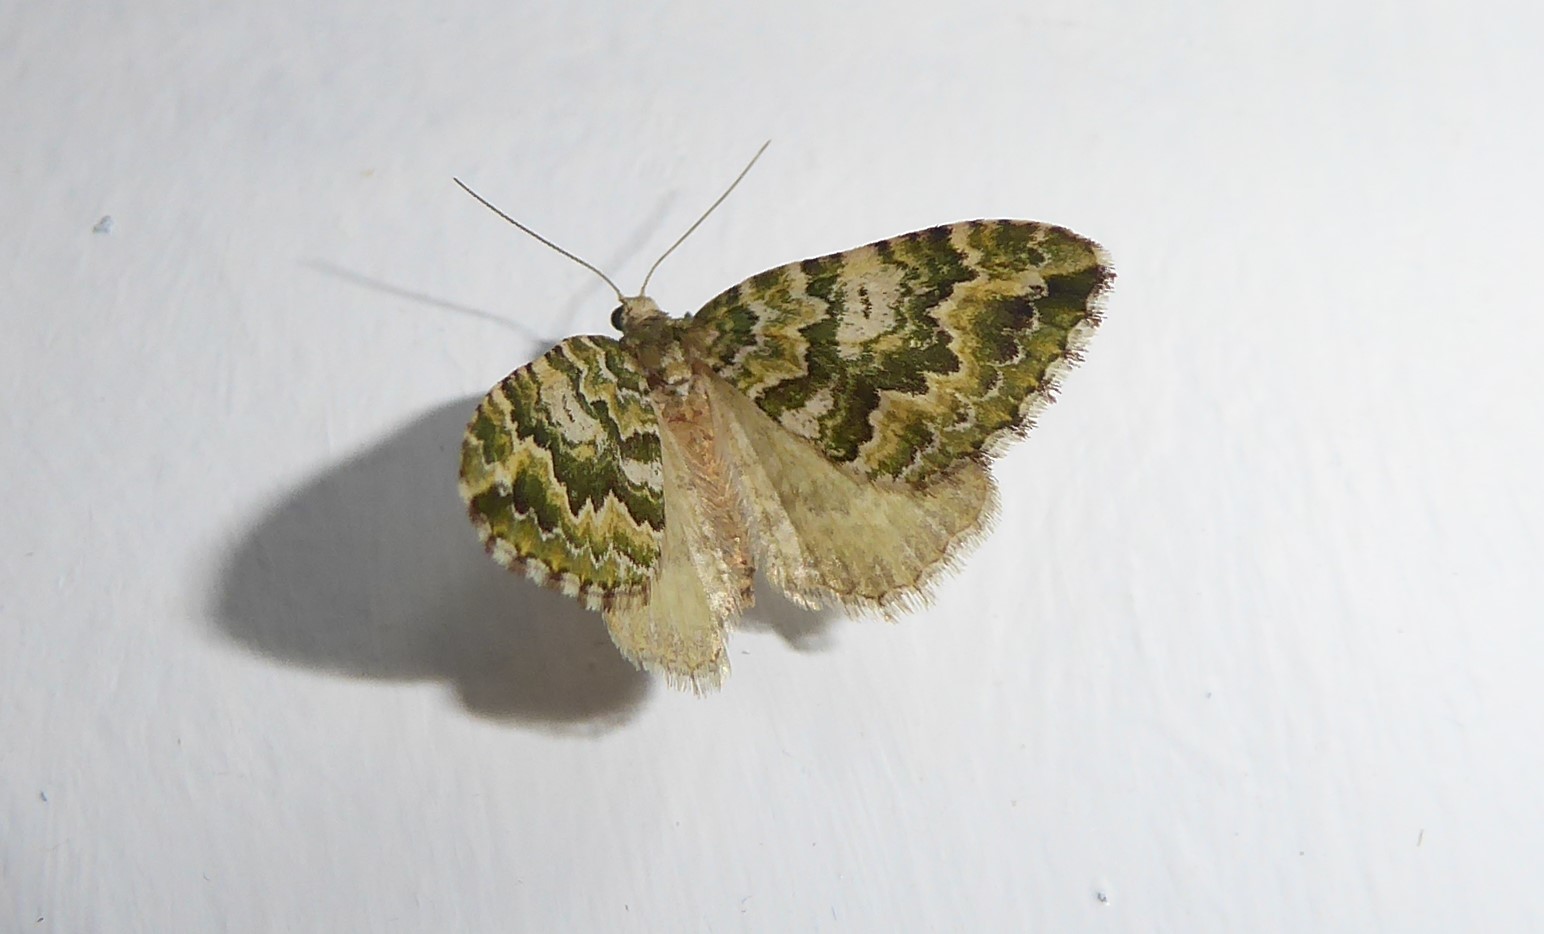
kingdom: Animalia
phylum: Arthropoda
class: Insecta
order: Lepidoptera
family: Geometridae
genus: Asaphodes
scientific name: Asaphodes beata
